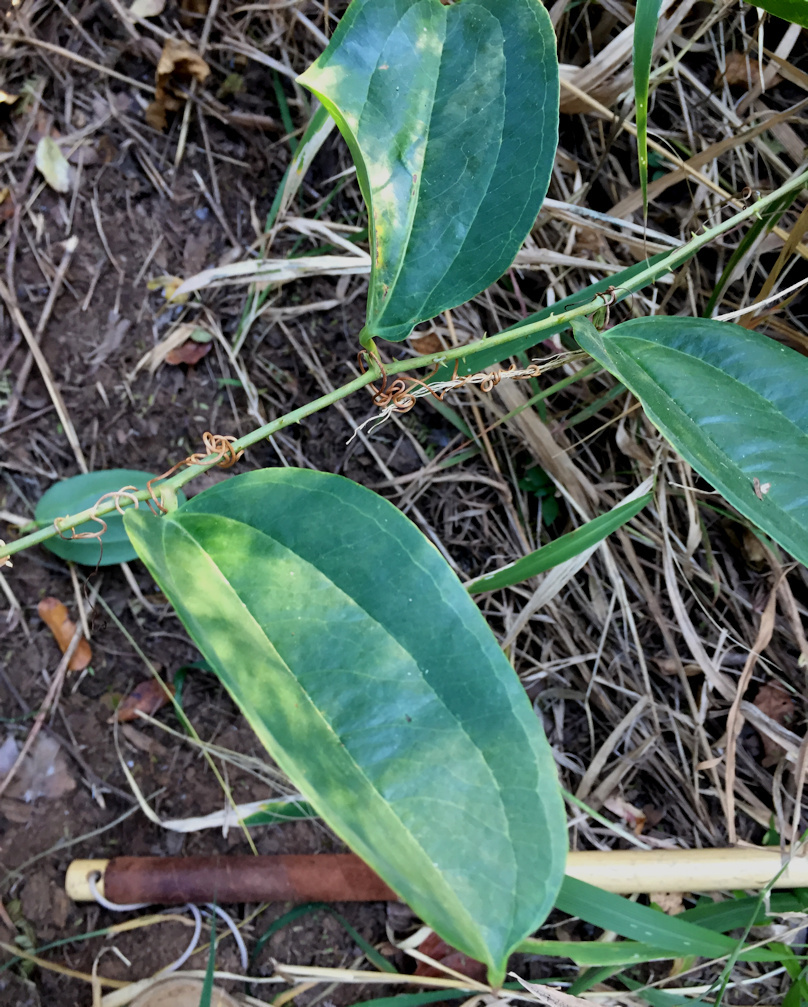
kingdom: Plantae
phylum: Tracheophyta
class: Liliopsida
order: Liliales
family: Smilacaceae
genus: Smilax
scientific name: Smilax anceps
